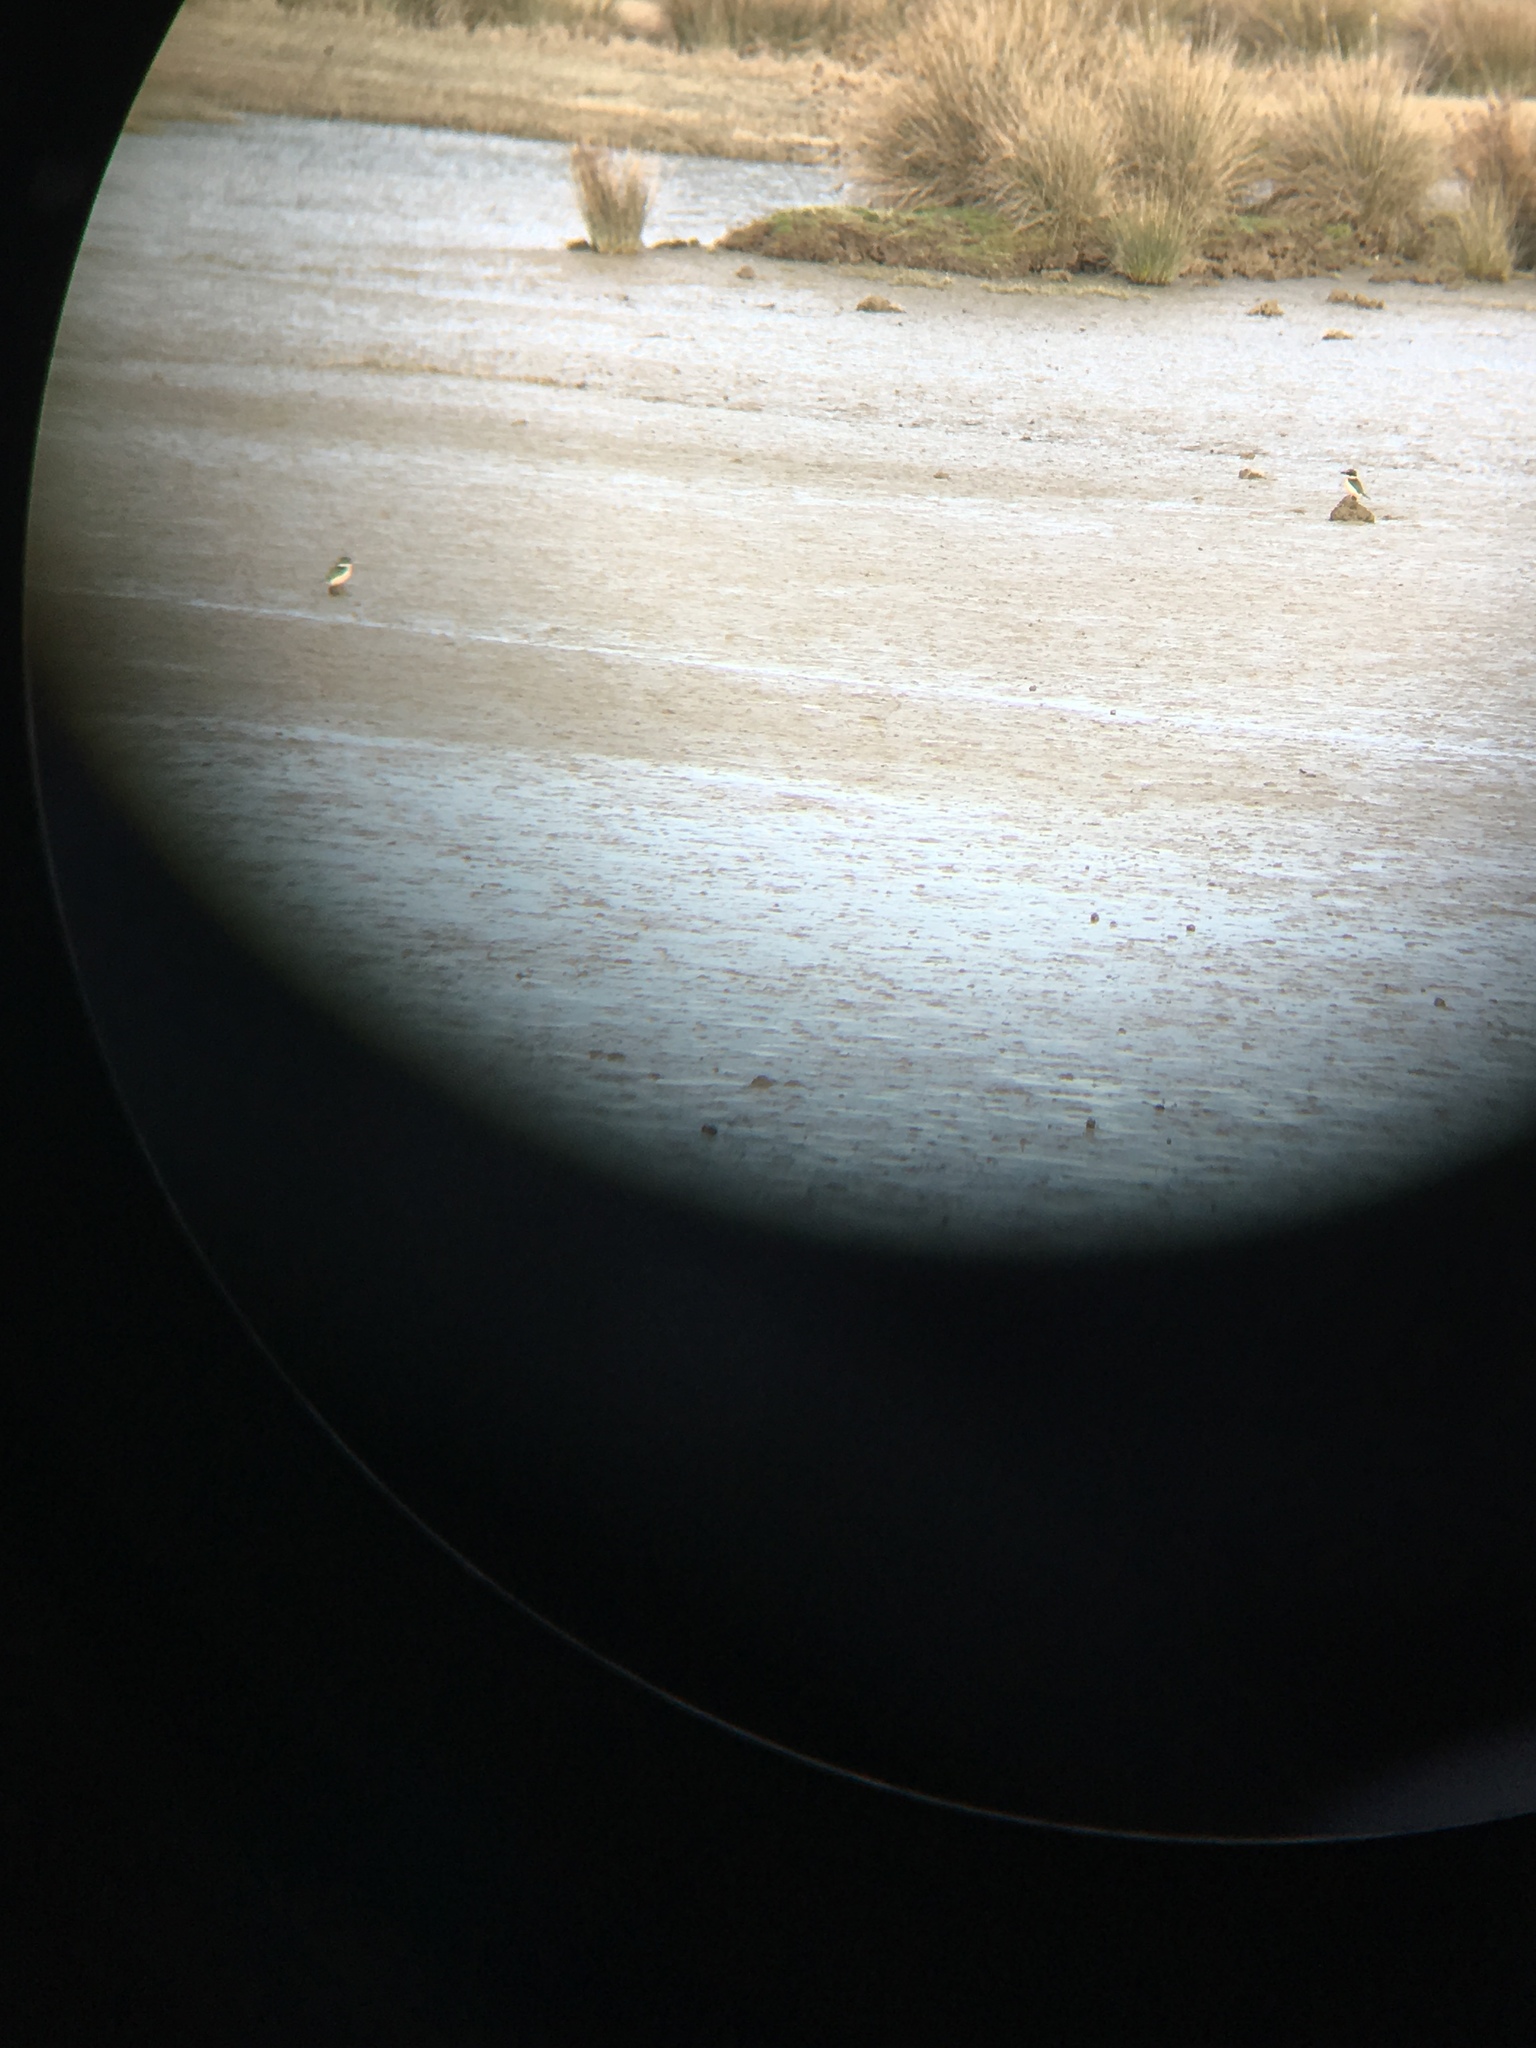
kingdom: Animalia
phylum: Chordata
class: Aves
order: Coraciiformes
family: Alcedinidae
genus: Todiramphus
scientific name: Todiramphus sanctus
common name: Sacred kingfisher
